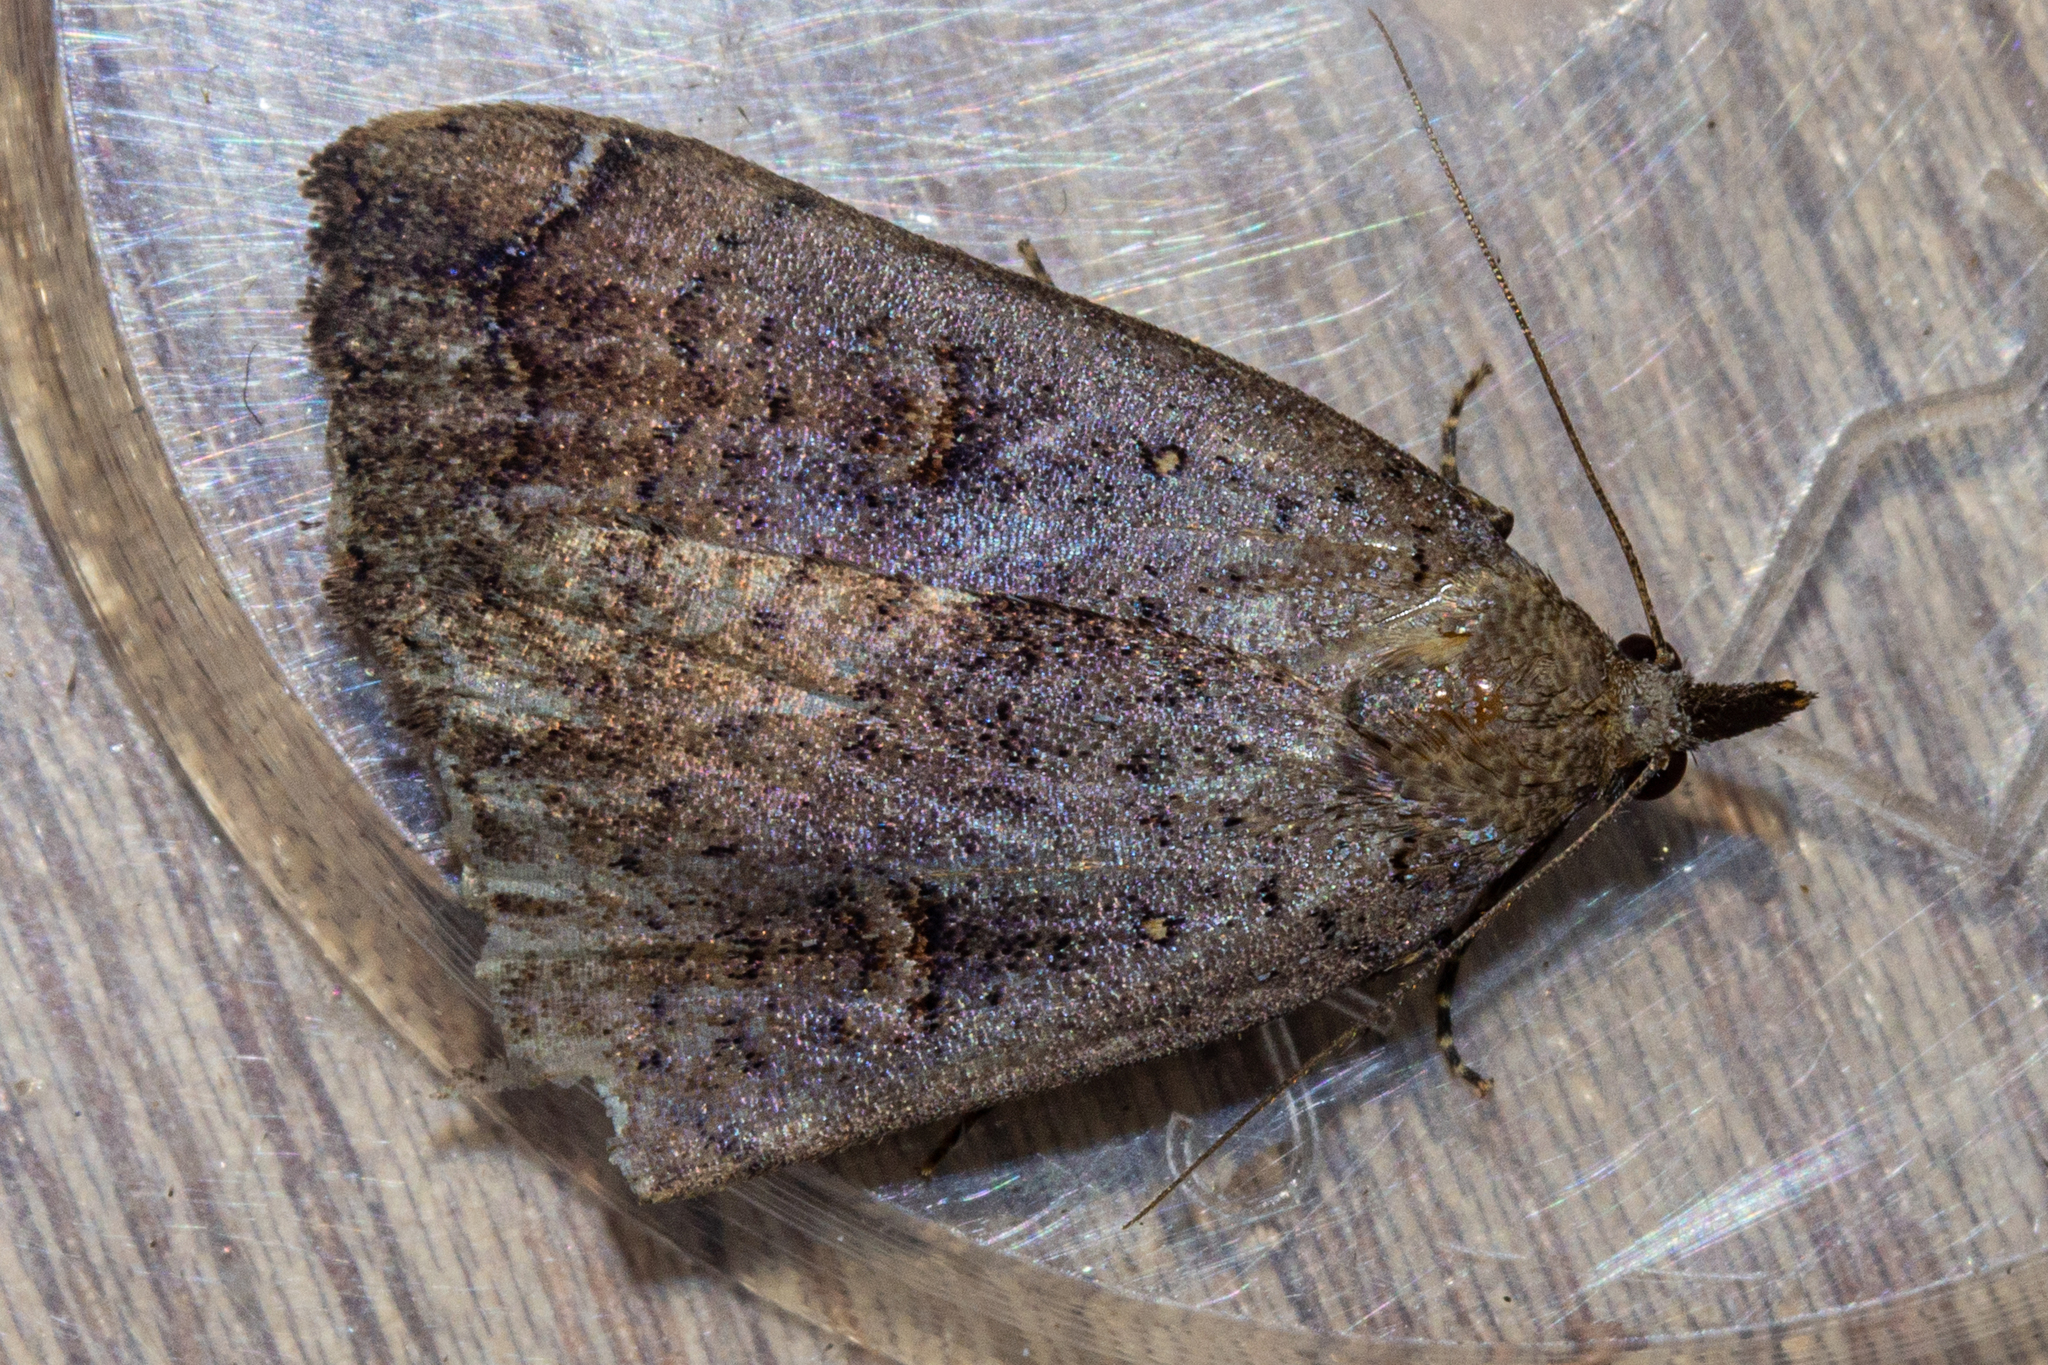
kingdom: Animalia
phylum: Arthropoda
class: Insecta
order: Lepidoptera
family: Erebidae
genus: Rhapsa
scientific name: Rhapsa scotosialis
